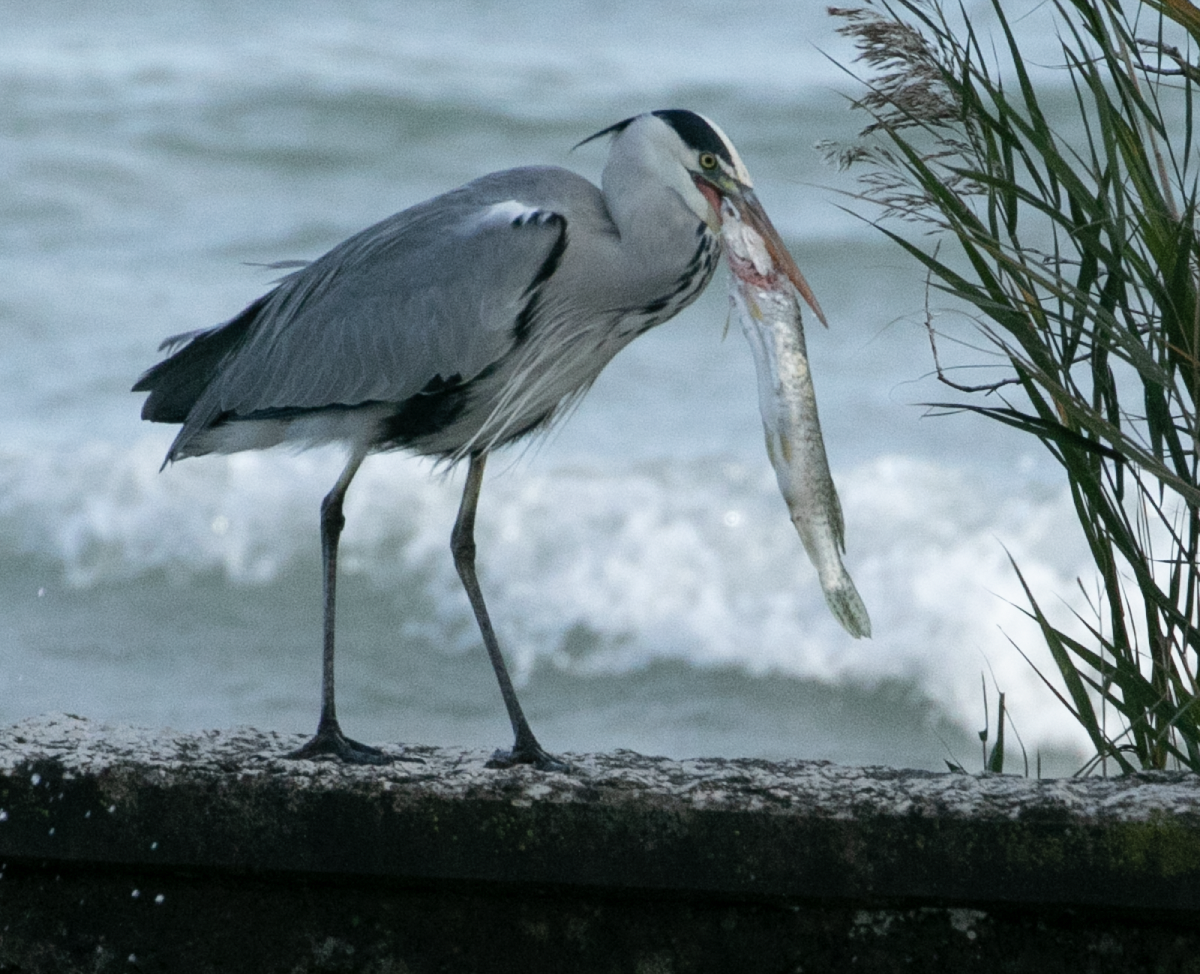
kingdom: Animalia
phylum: Chordata
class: Aves
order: Pelecaniformes
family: Ardeidae
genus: Ardea
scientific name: Ardea cinerea
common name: Grey heron
